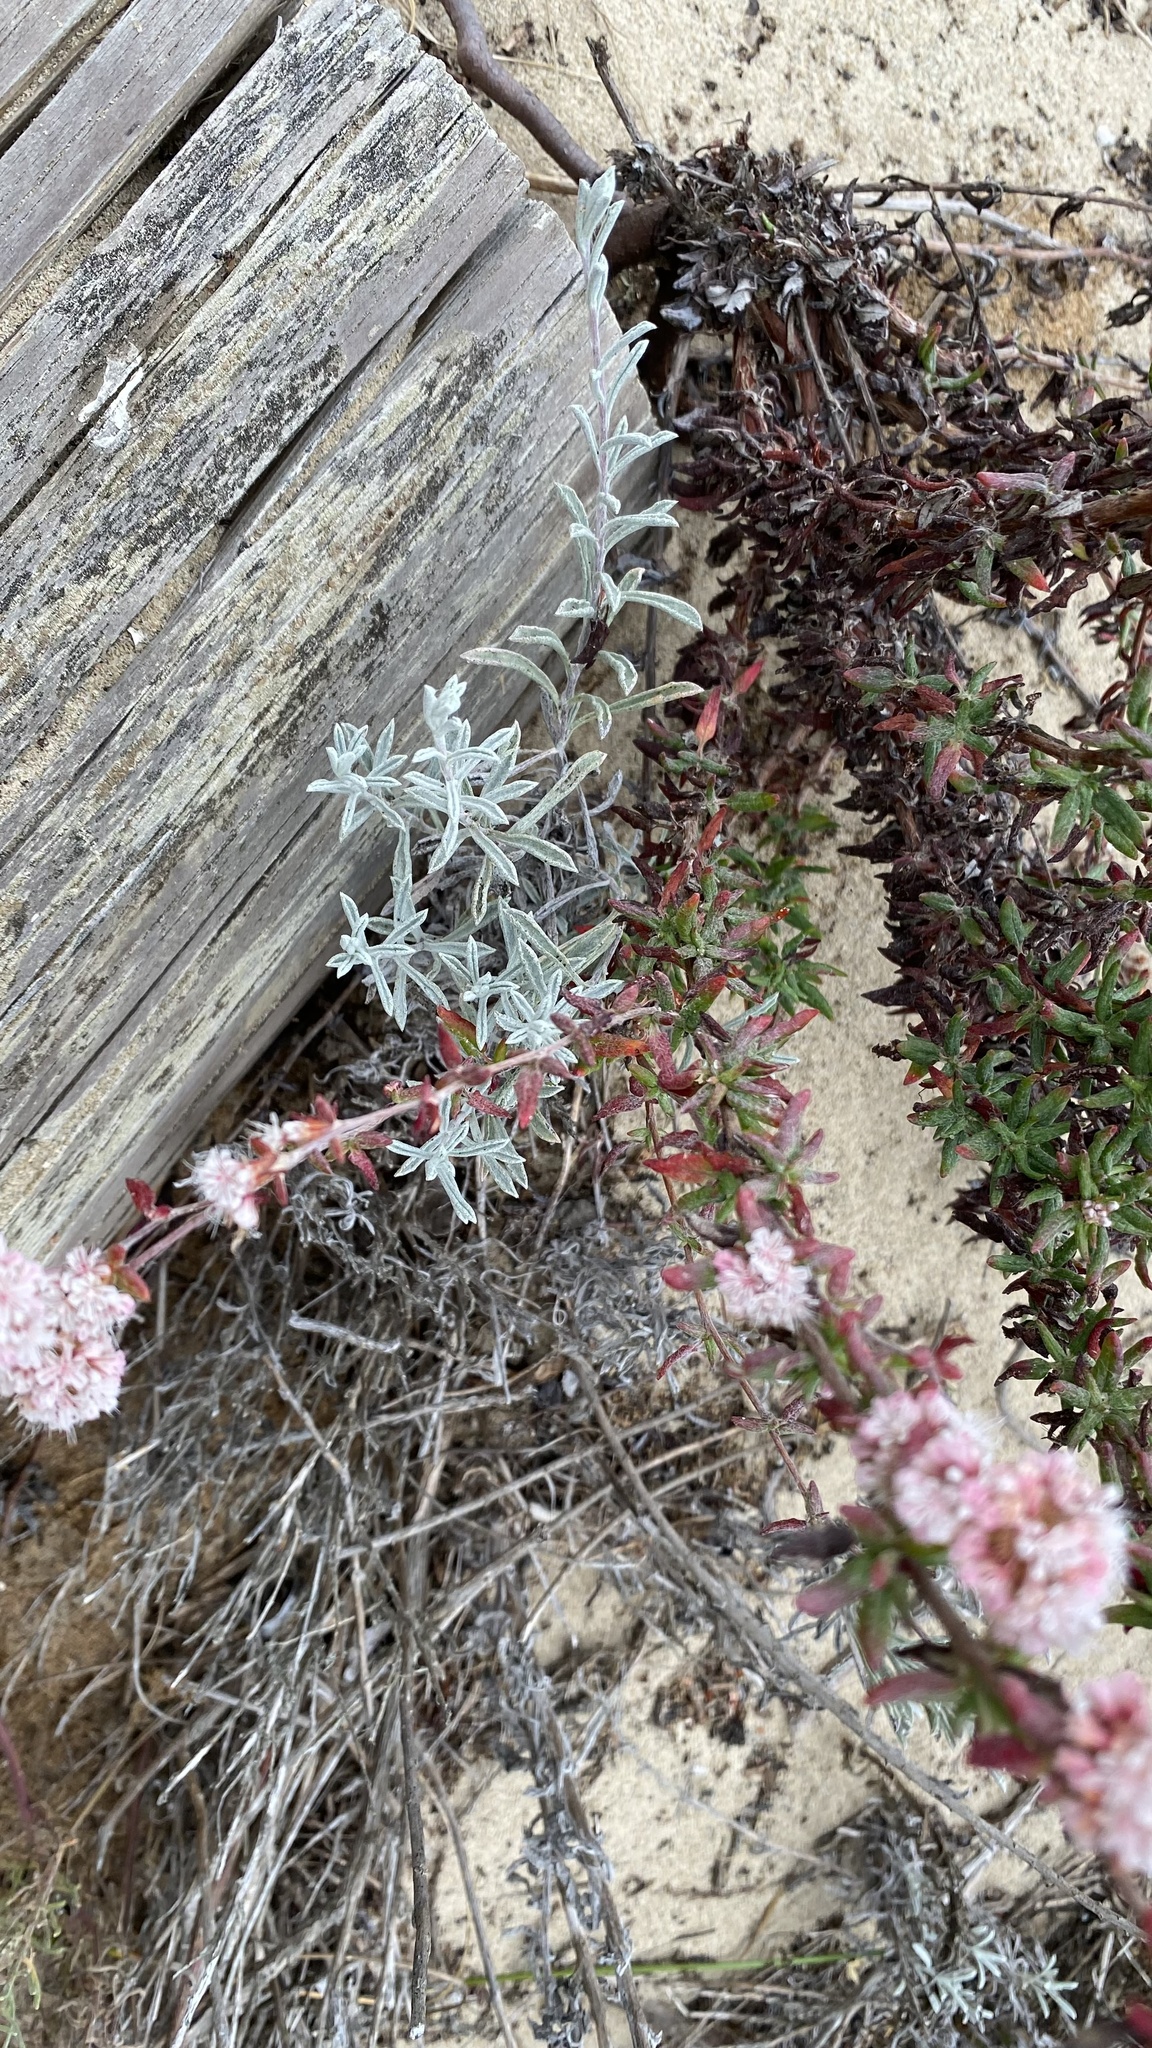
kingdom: Plantae
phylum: Tracheophyta
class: Magnoliopsida
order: Caryophyllales
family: Polygonaceae
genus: Eriogonum
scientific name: Eriogonum parvifolium
